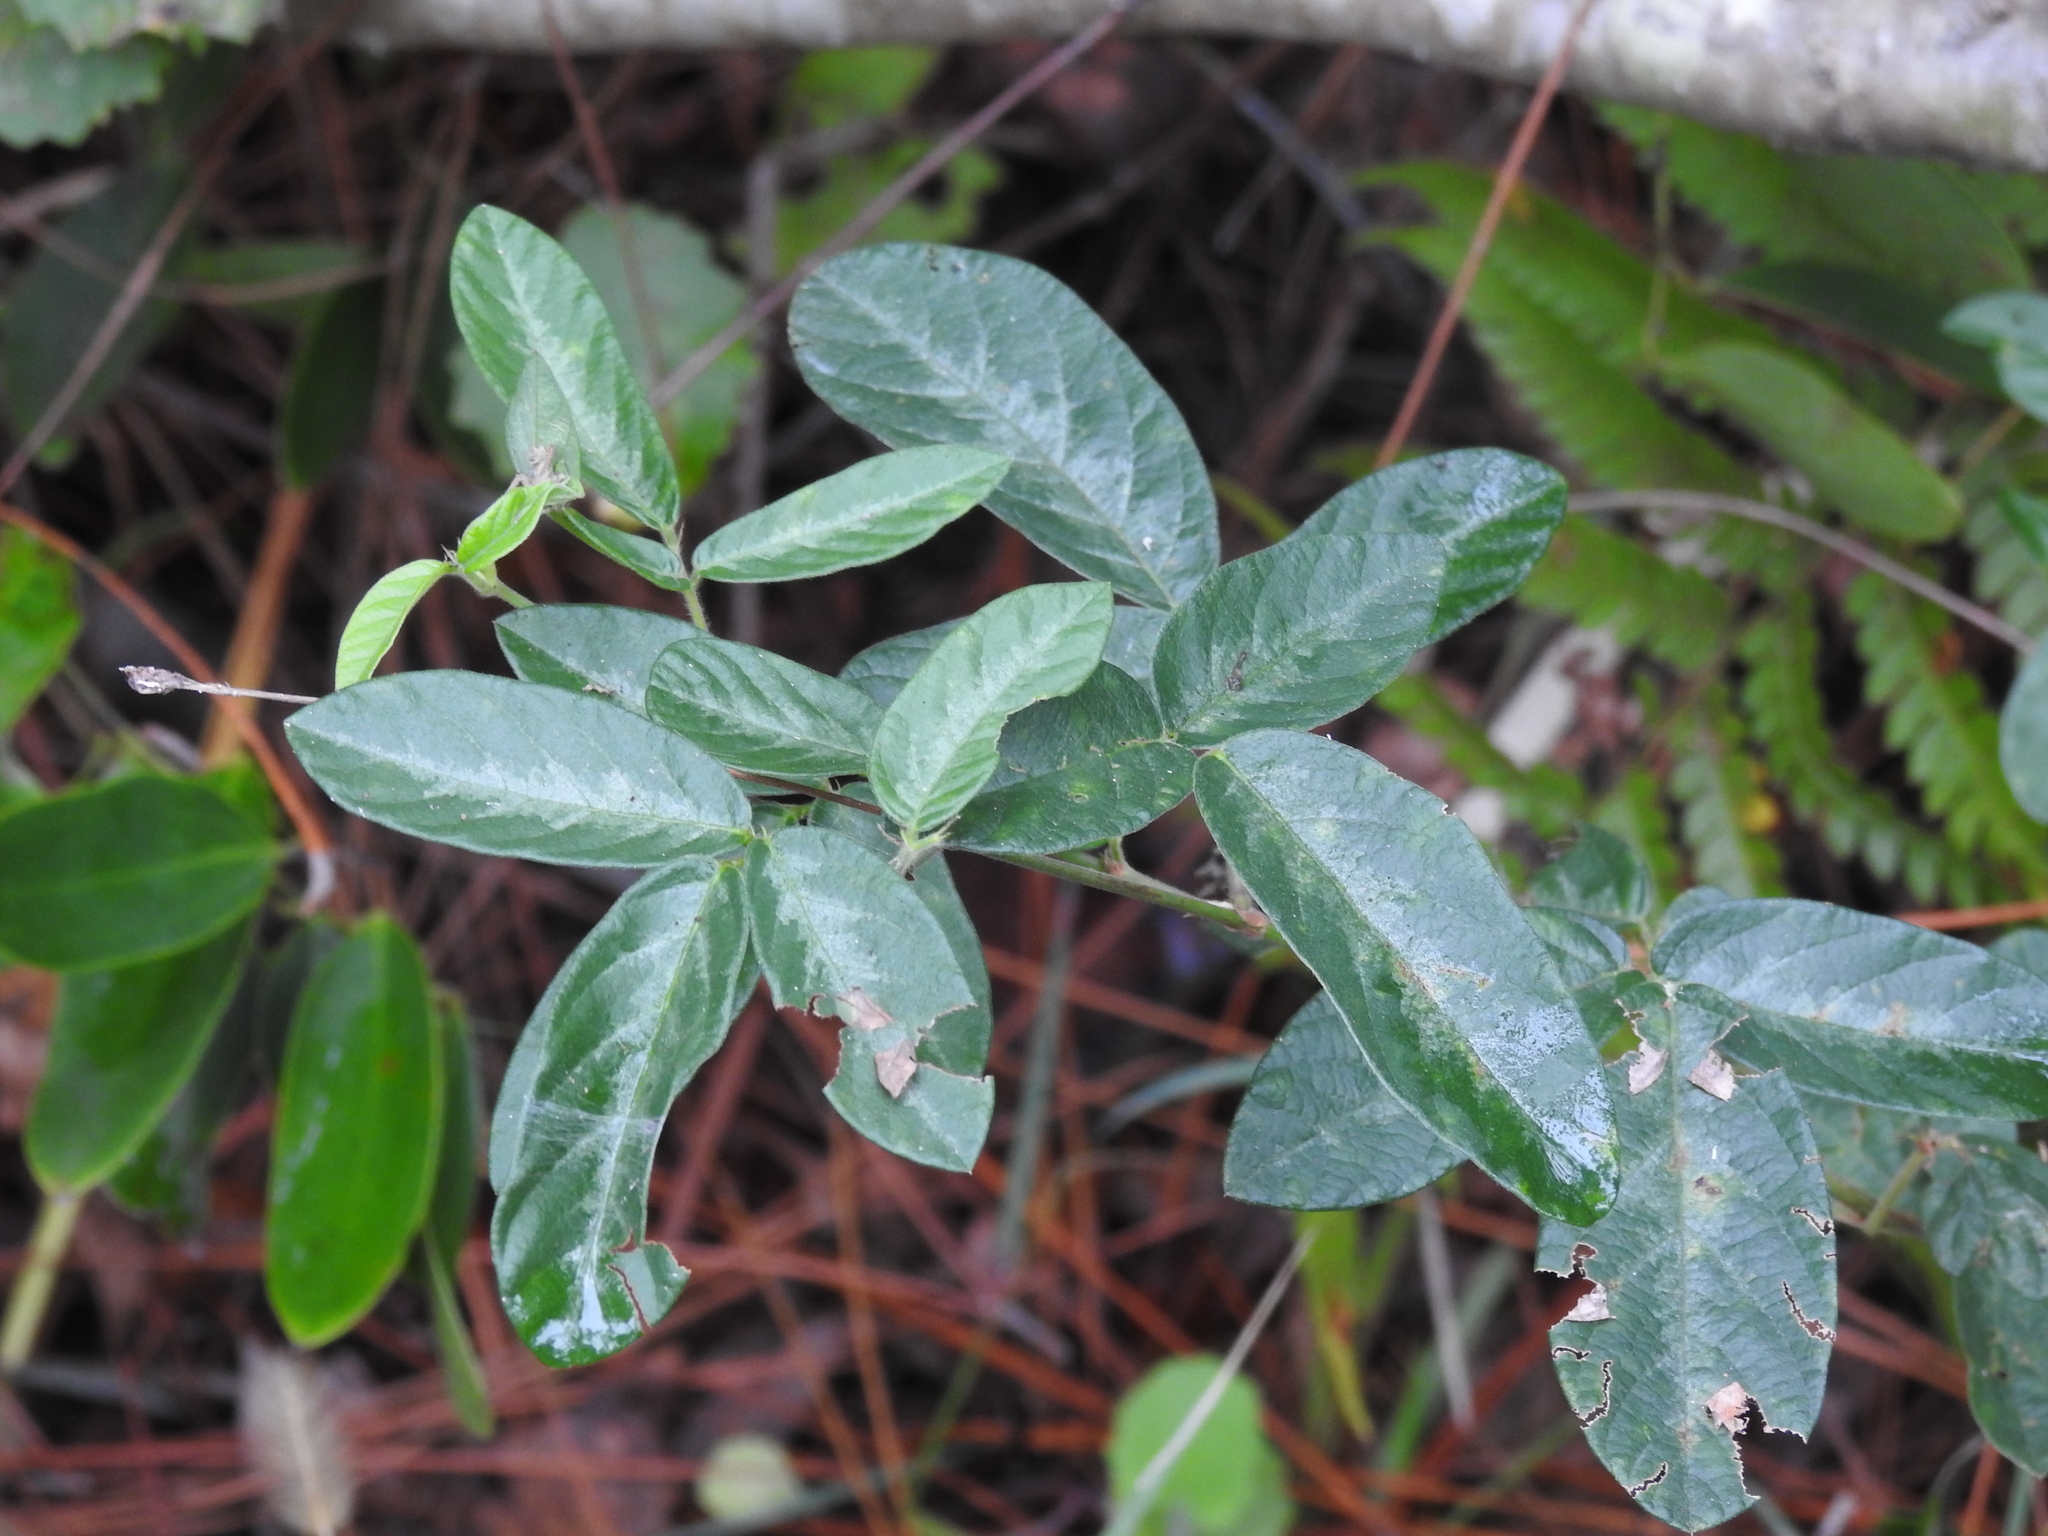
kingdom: Plantae
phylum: Tracheophyta
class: Magnoliopsida
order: Fabales
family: Fabaceae
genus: Desmodium
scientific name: Desmodium incanum
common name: Tickclover
